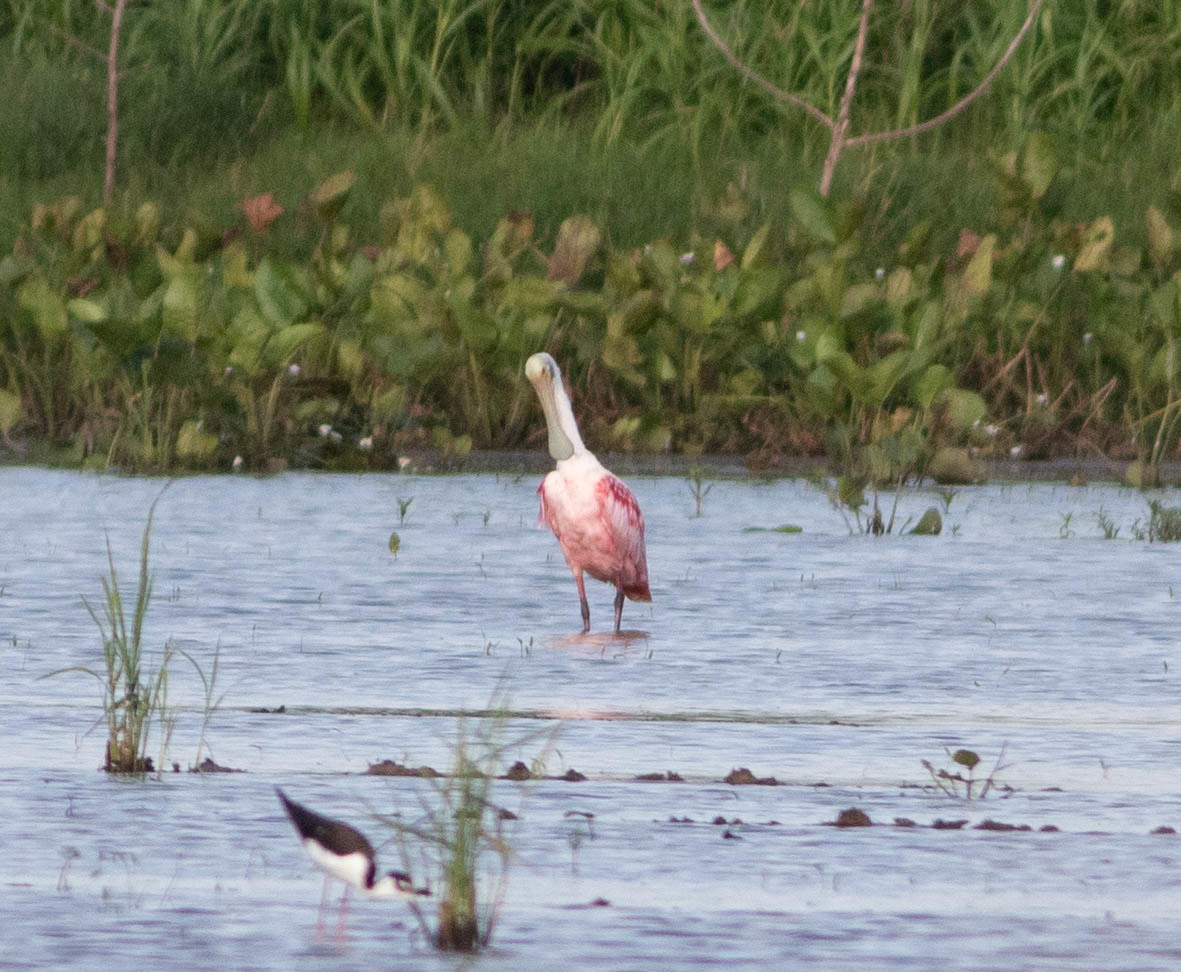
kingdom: Animalia
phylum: Chordata
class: Aves
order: Pelecaniformes
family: Threskiornithidae
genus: Platalea
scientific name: Platalea ajaja
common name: Roseate spoonbill
